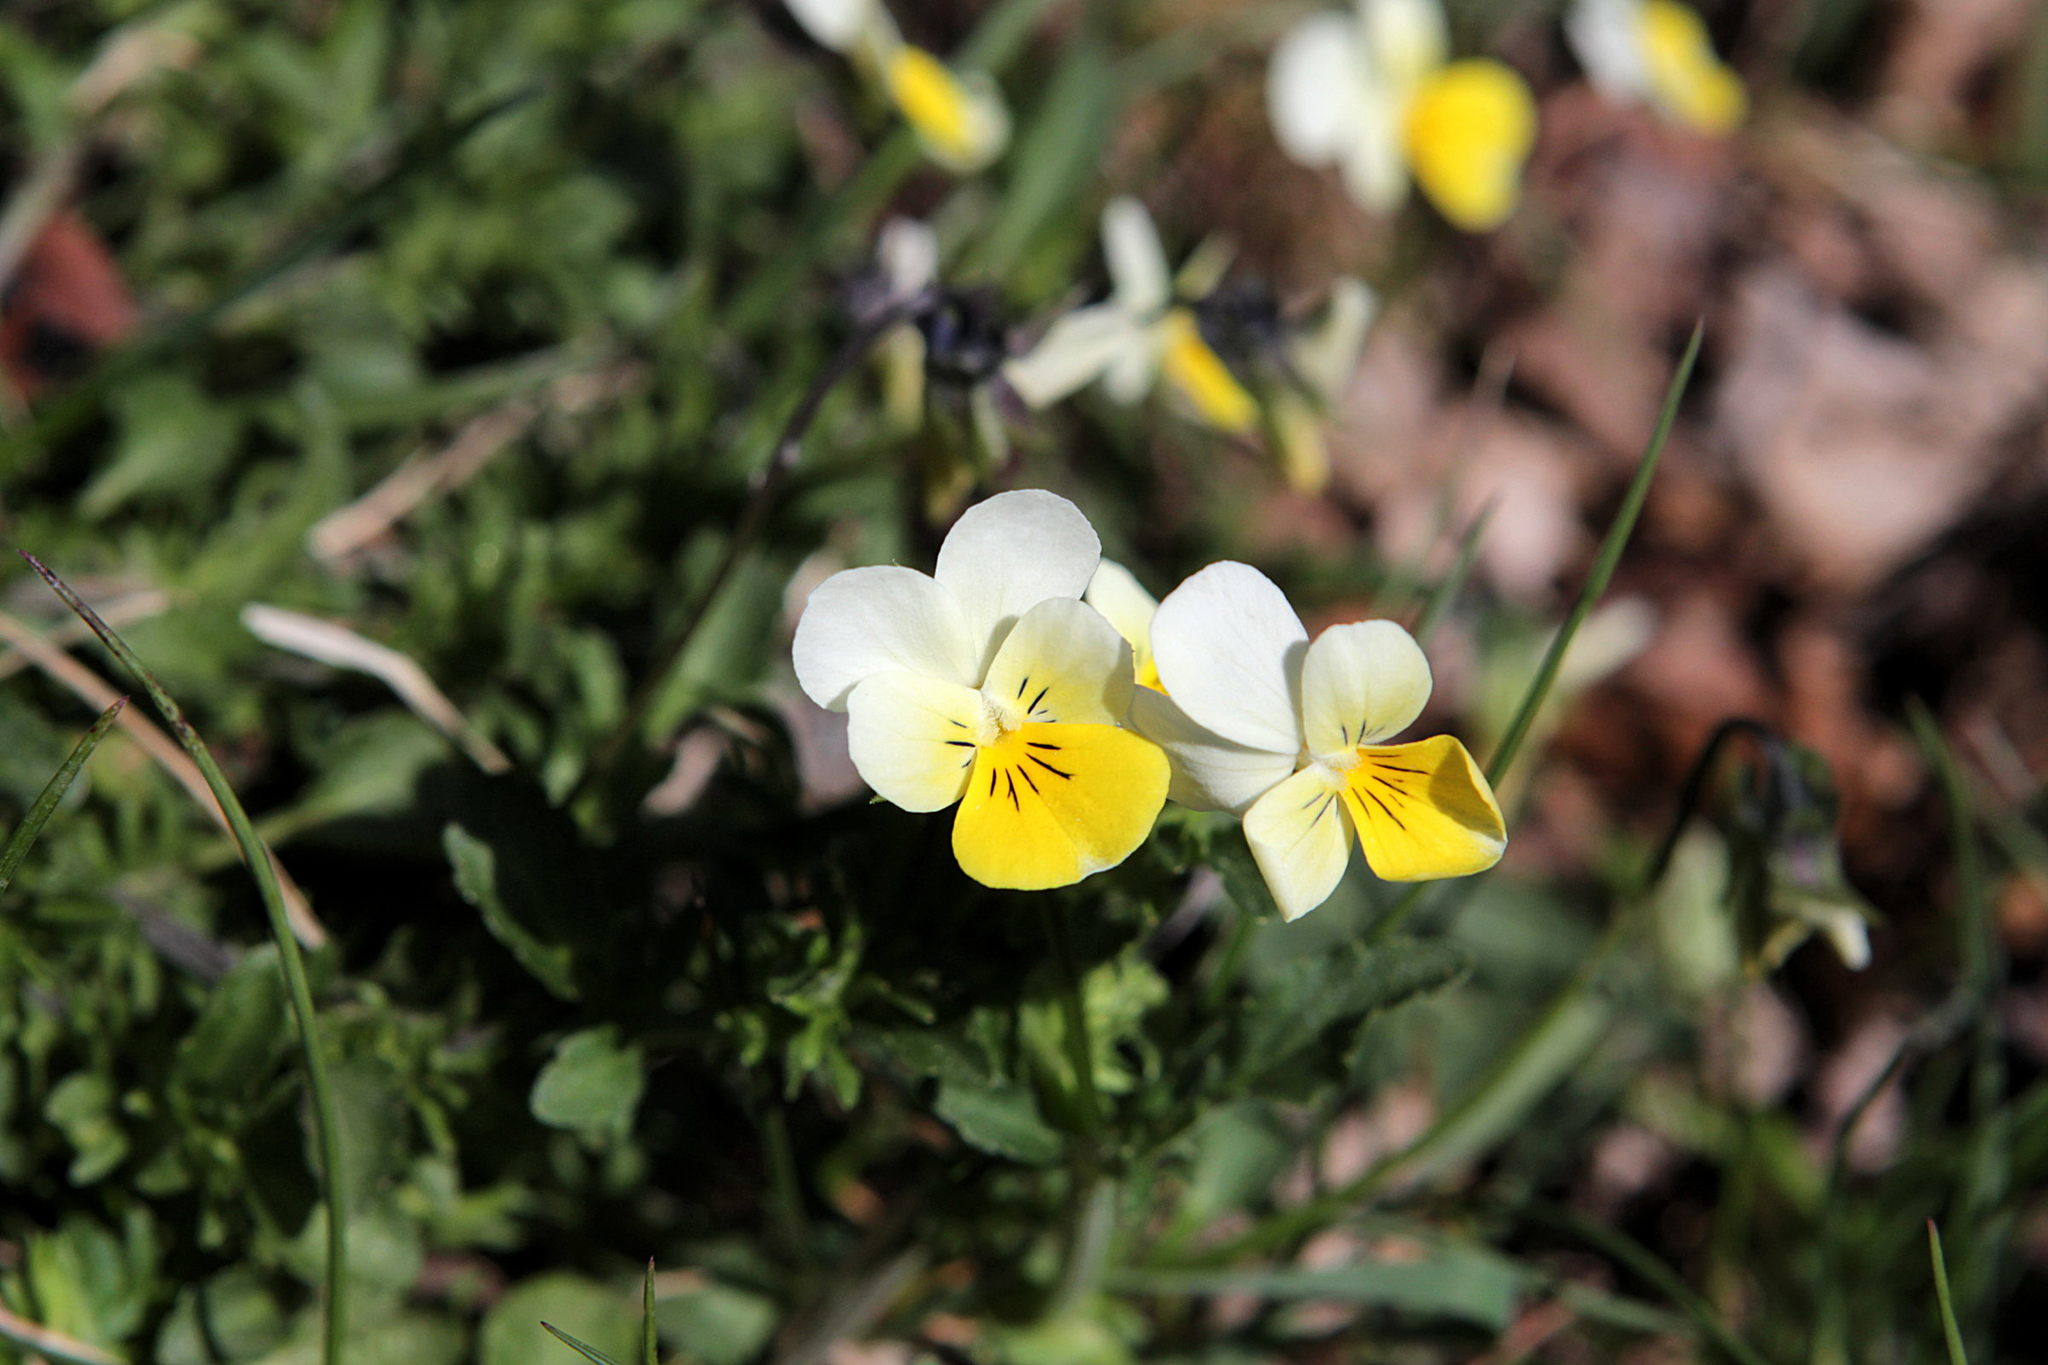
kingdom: Plantae
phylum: Tracheophyta
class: Magnoliopsida
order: Malpighiales
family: Violaceae
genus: Viola
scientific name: Viola arvensis
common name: Field pansy
